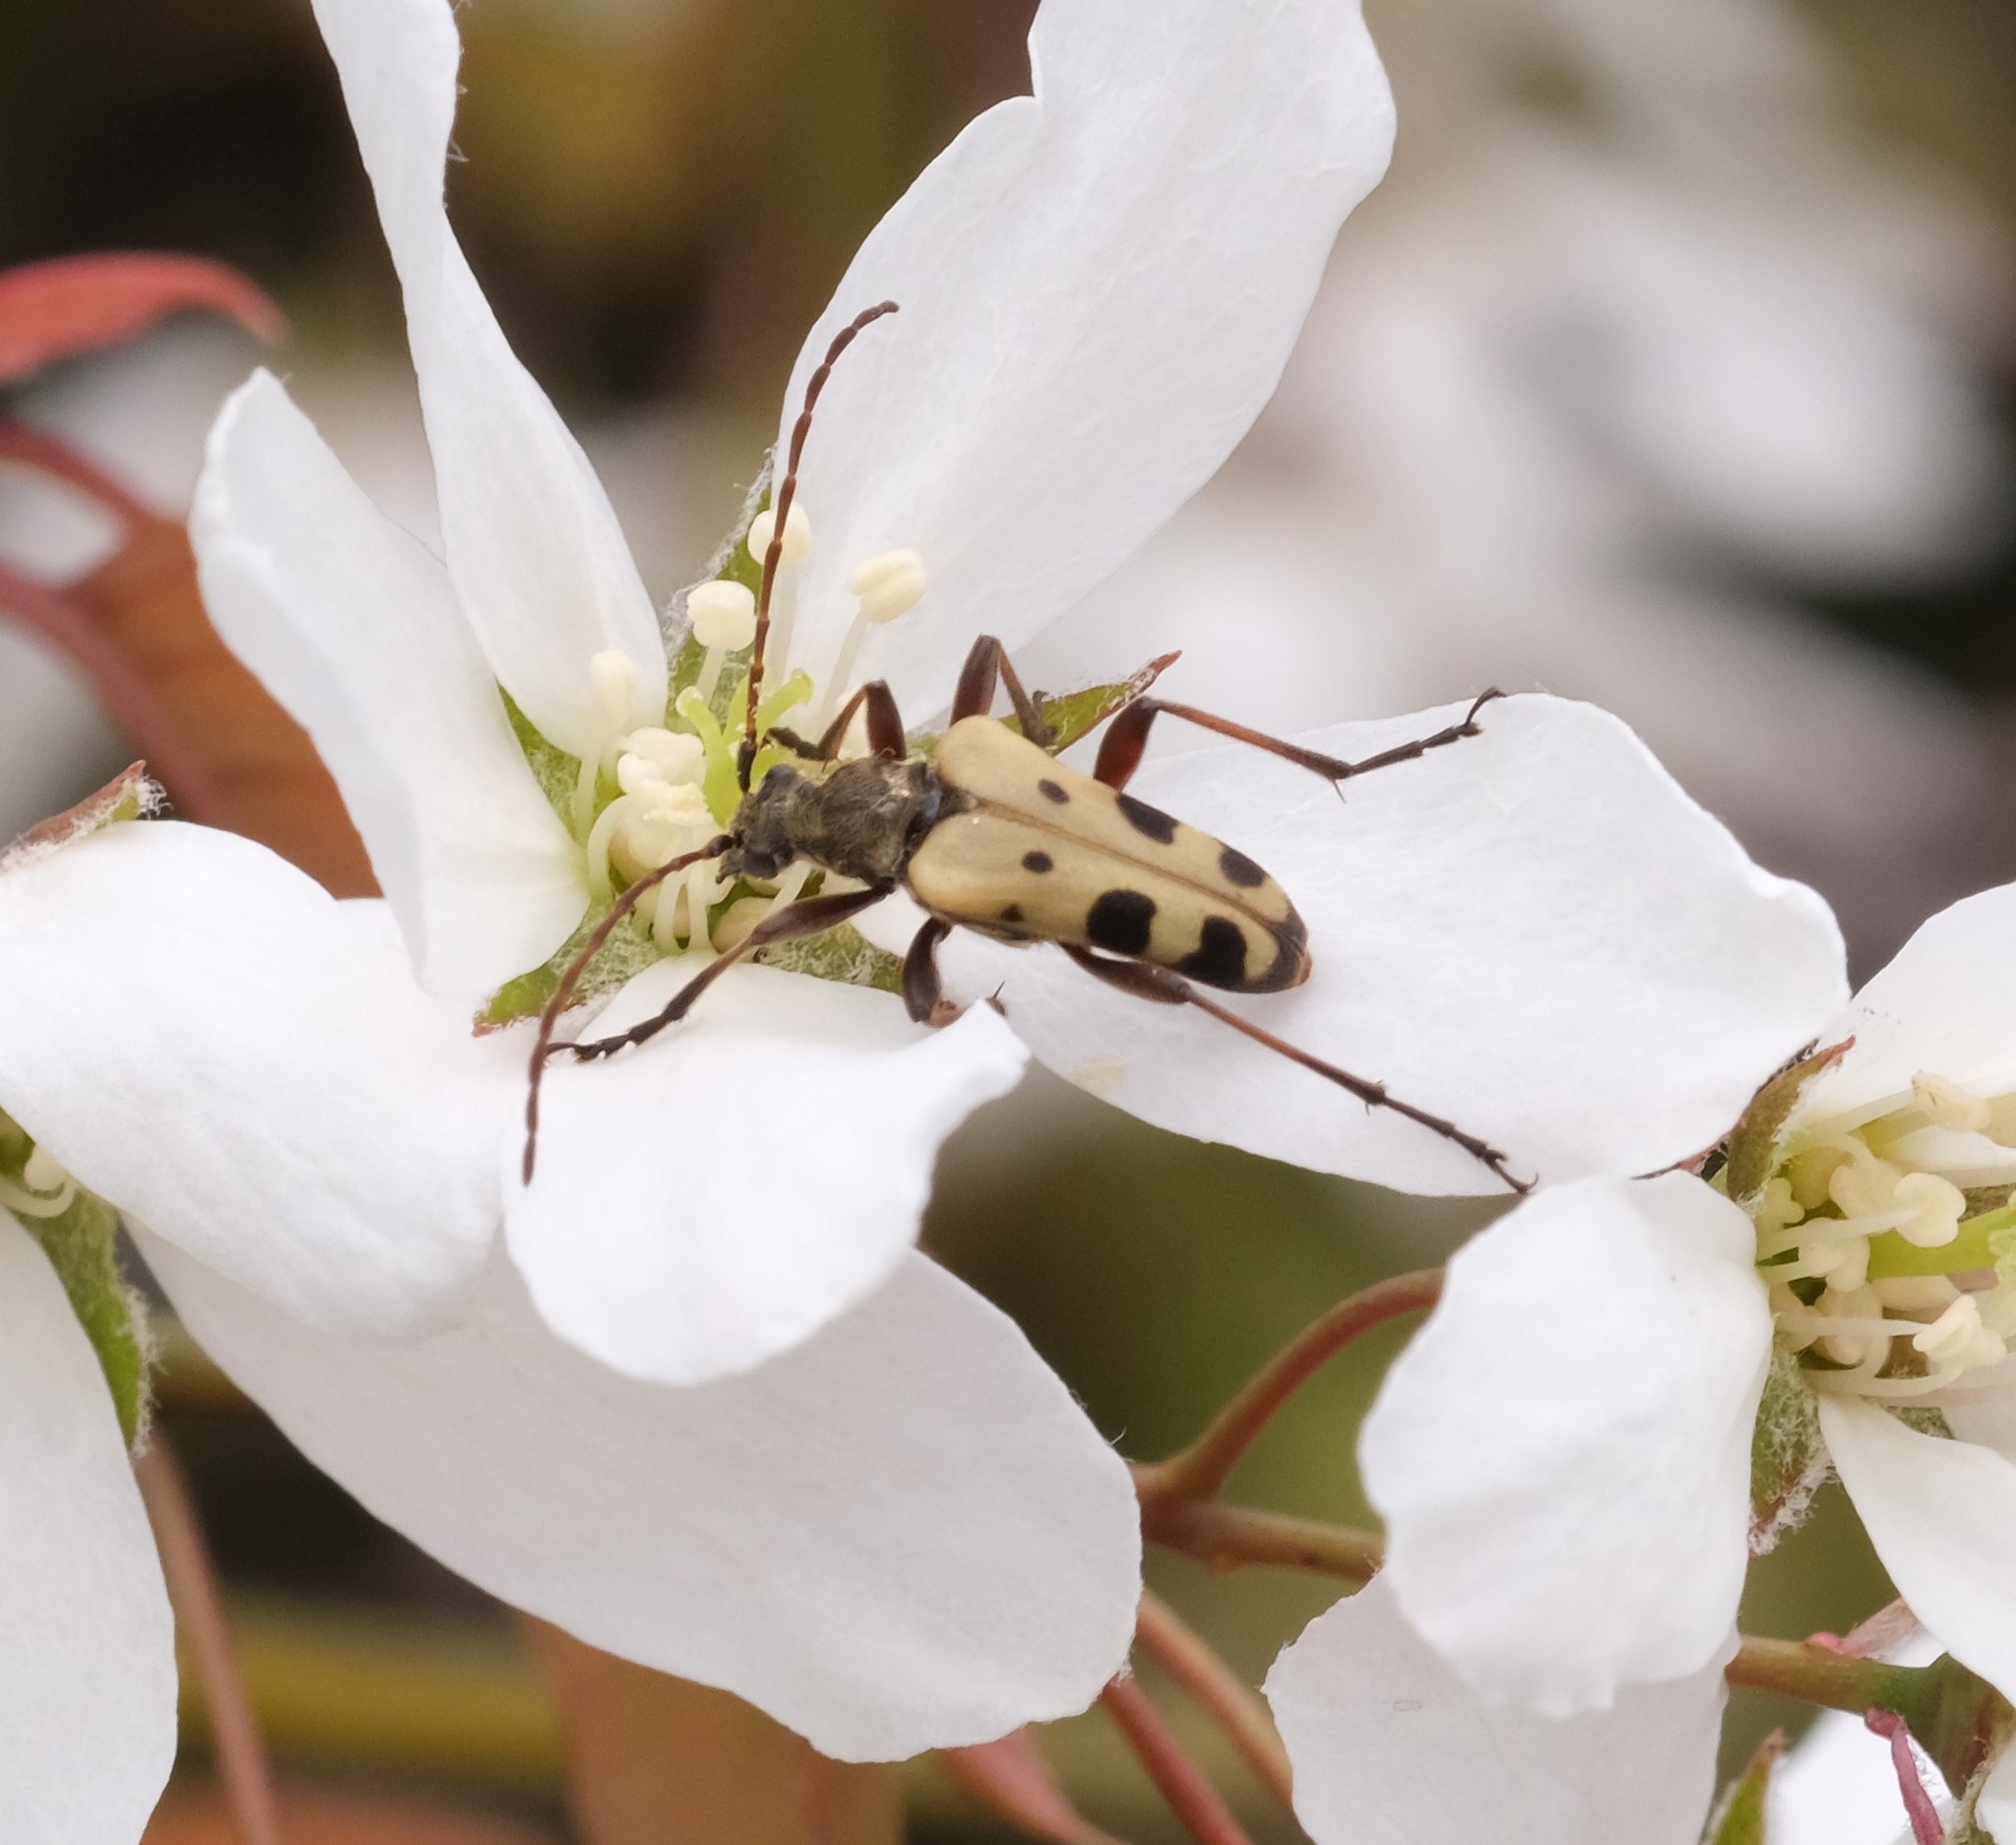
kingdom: Animalia
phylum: Arthropoda
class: Insecta
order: Coleoptera
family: Cerambycidae
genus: Evodinus
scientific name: Evodinus monticola
